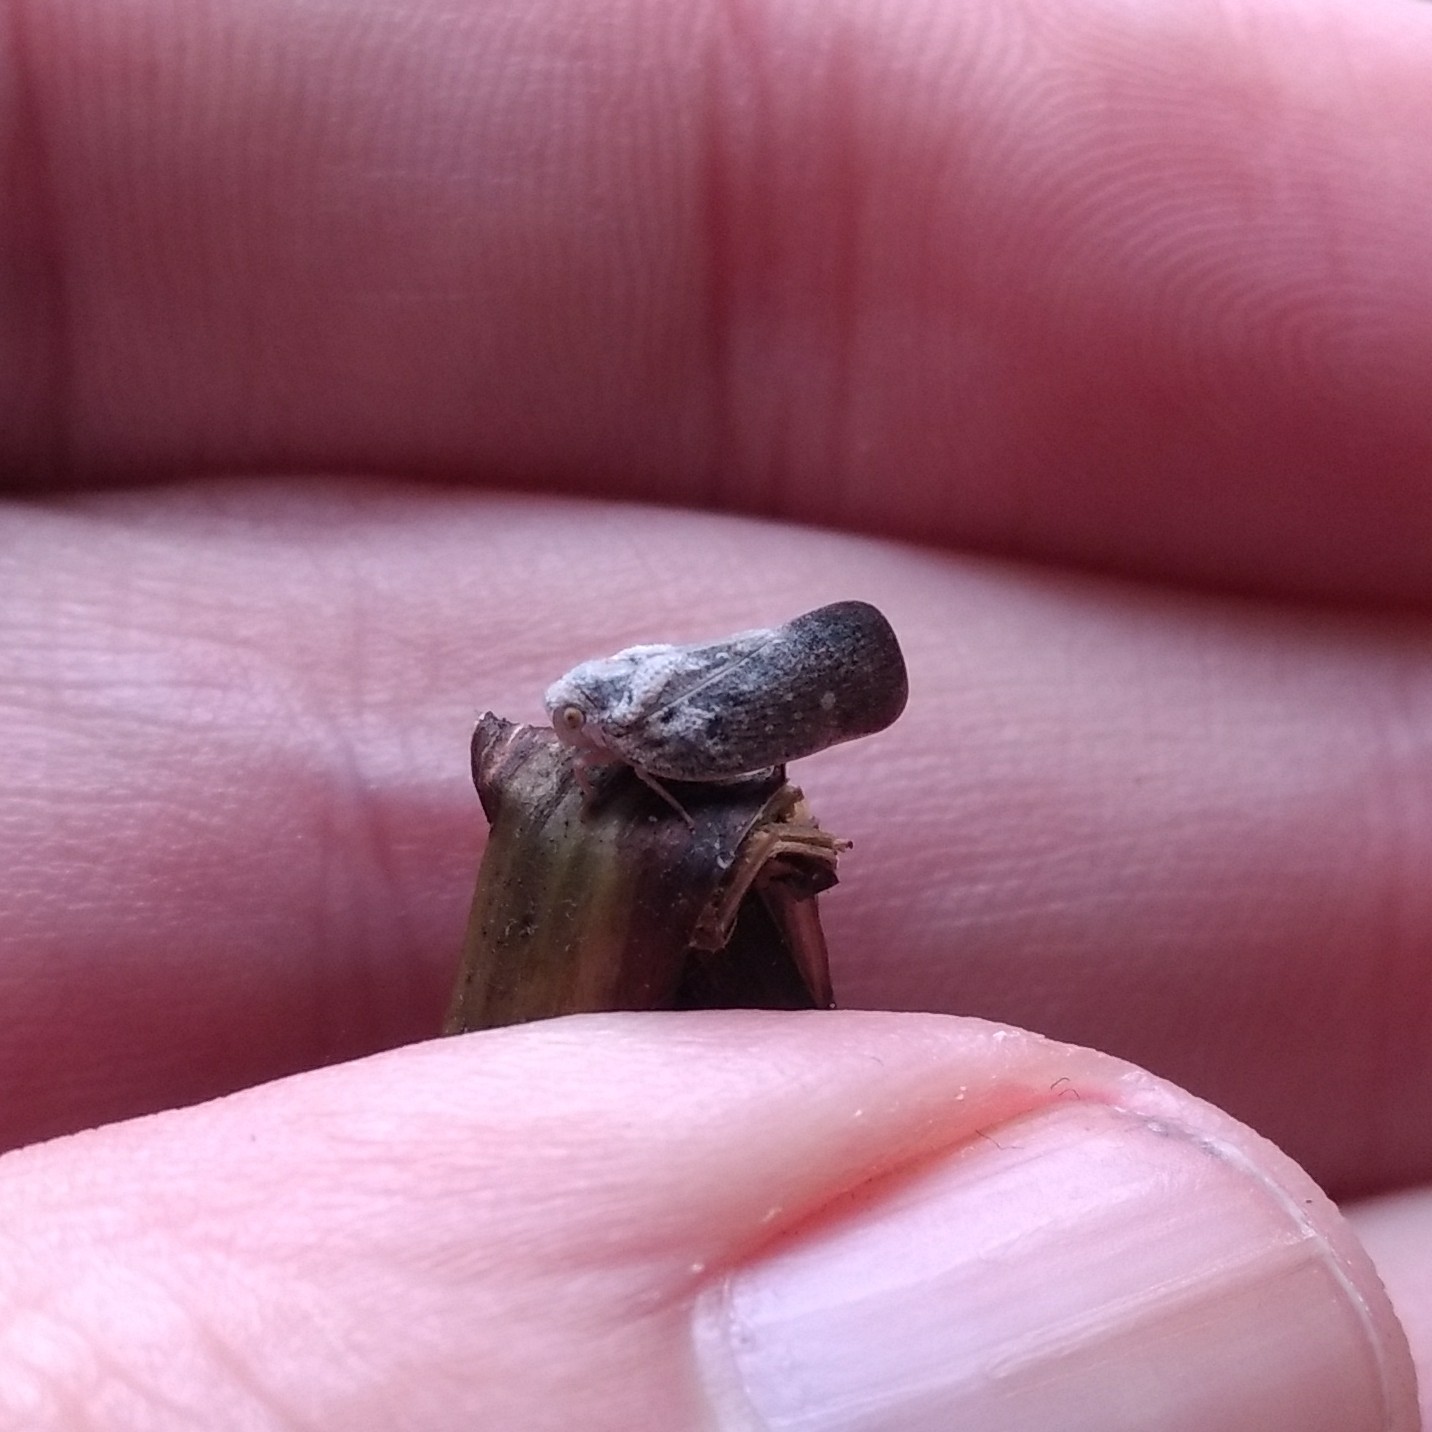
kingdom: Animalia
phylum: Arthropoda
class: Insecta
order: Hemiptera
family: Flatidae
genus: Metcalfa
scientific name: Metcalfa pruinosa
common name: Citrus flatid planthopper
